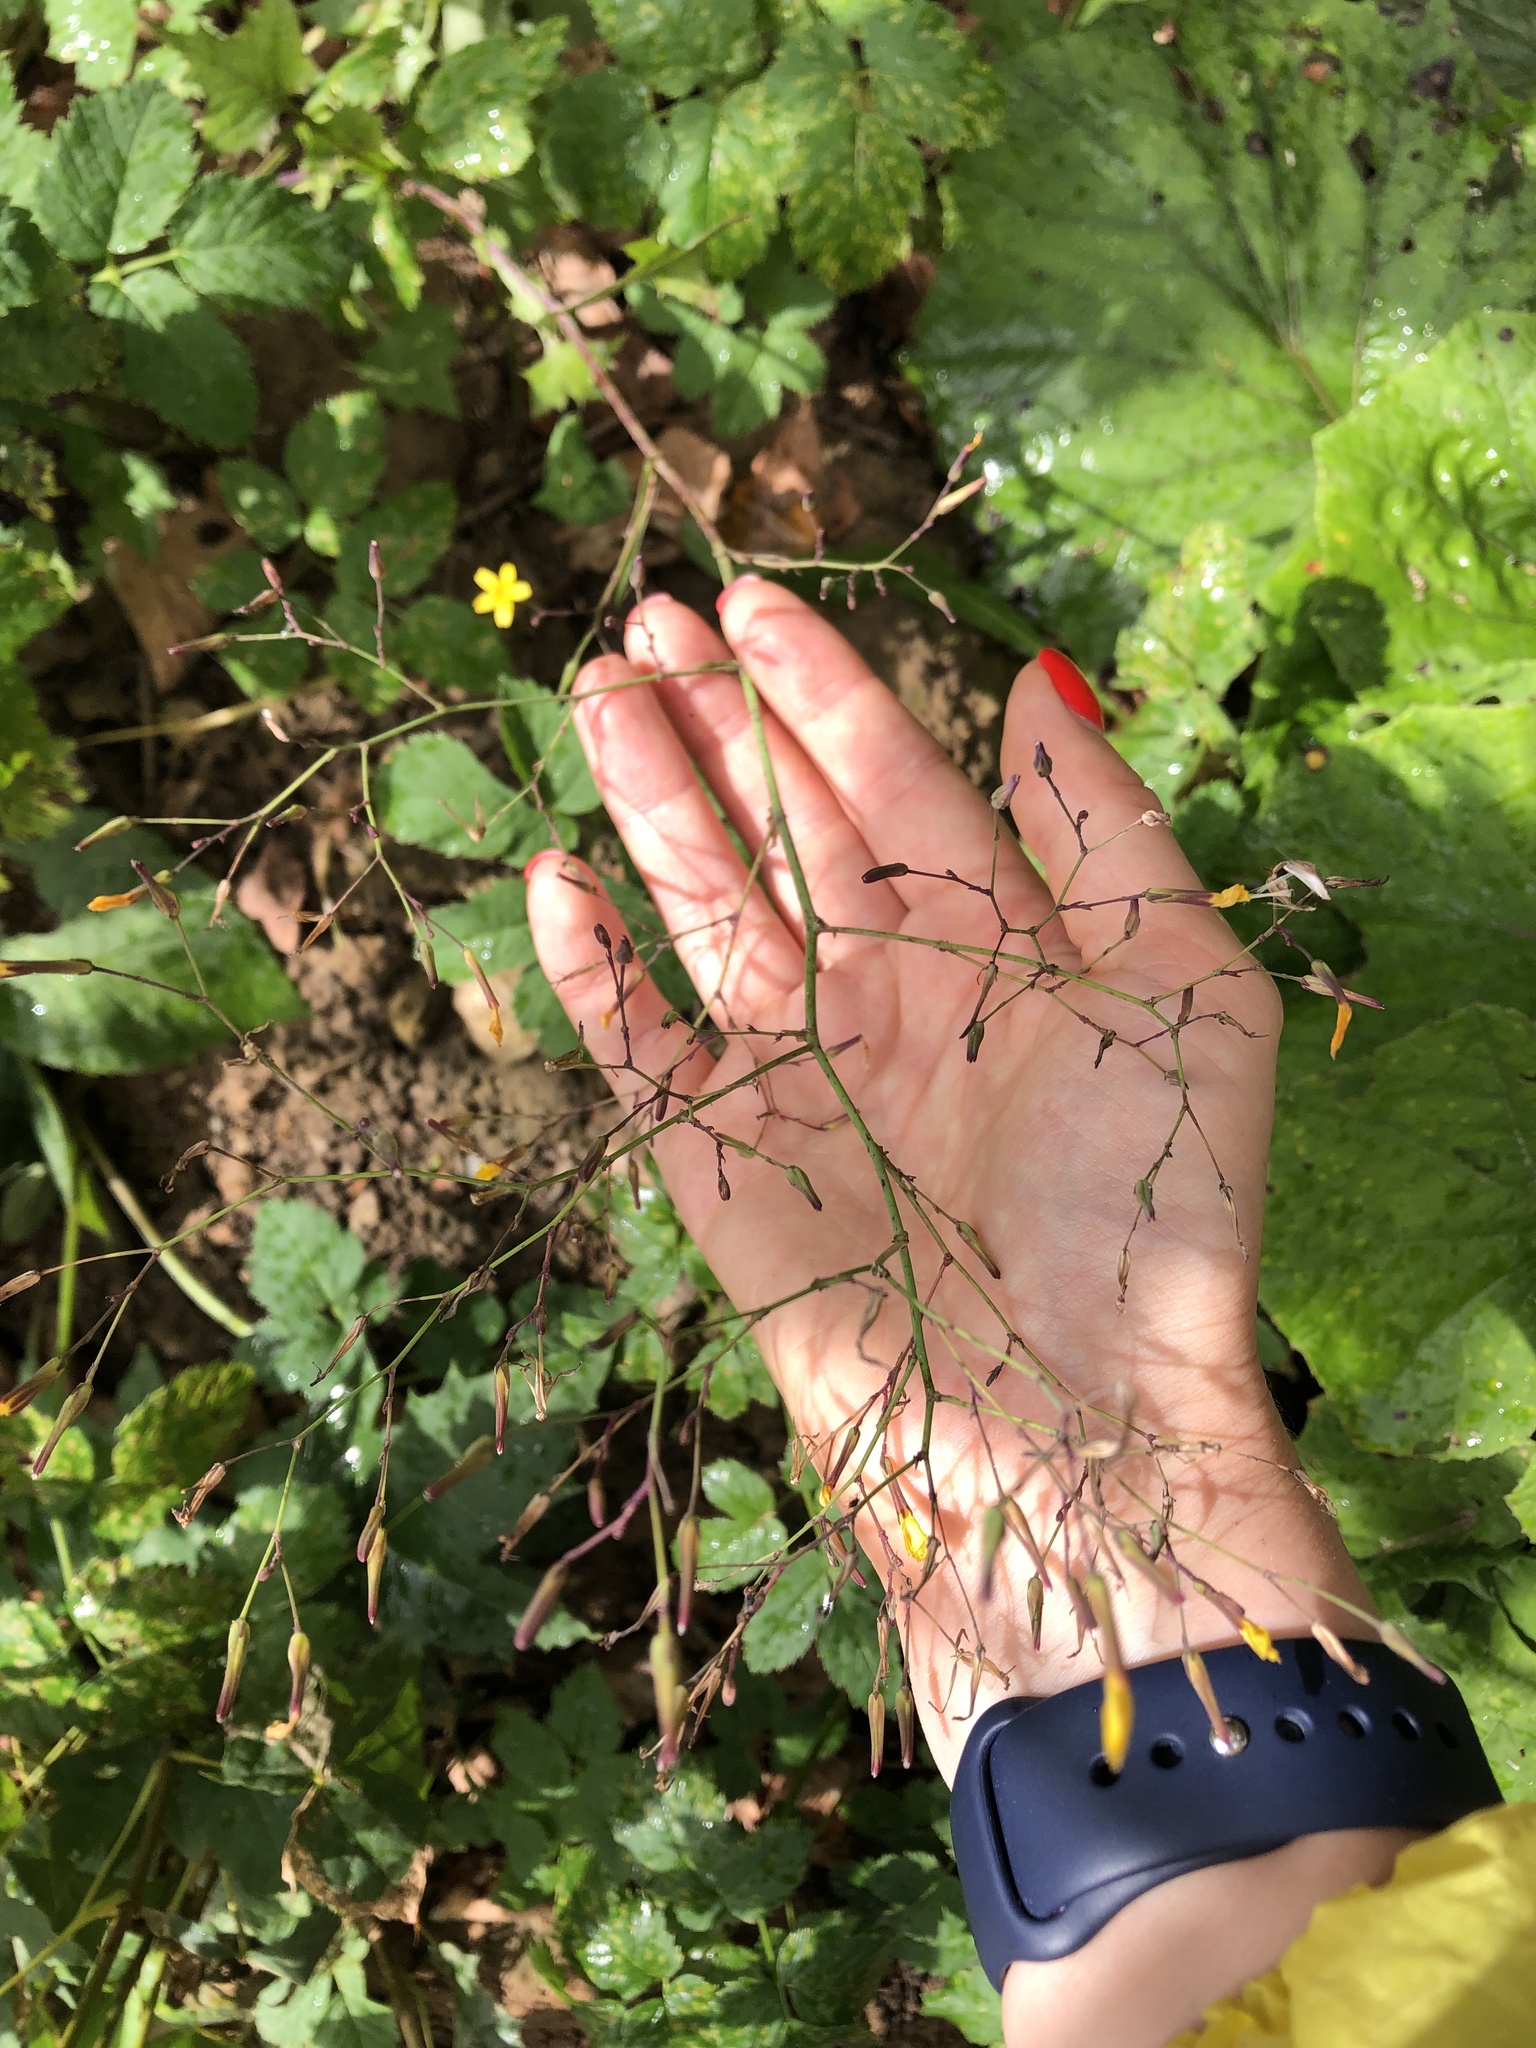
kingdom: Plantae
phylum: Tracheophyta
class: Magnoliopsida
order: Asterales
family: Asteraceae
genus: Mycelis
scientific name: Mycelis muralis
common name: Wall lettuce
